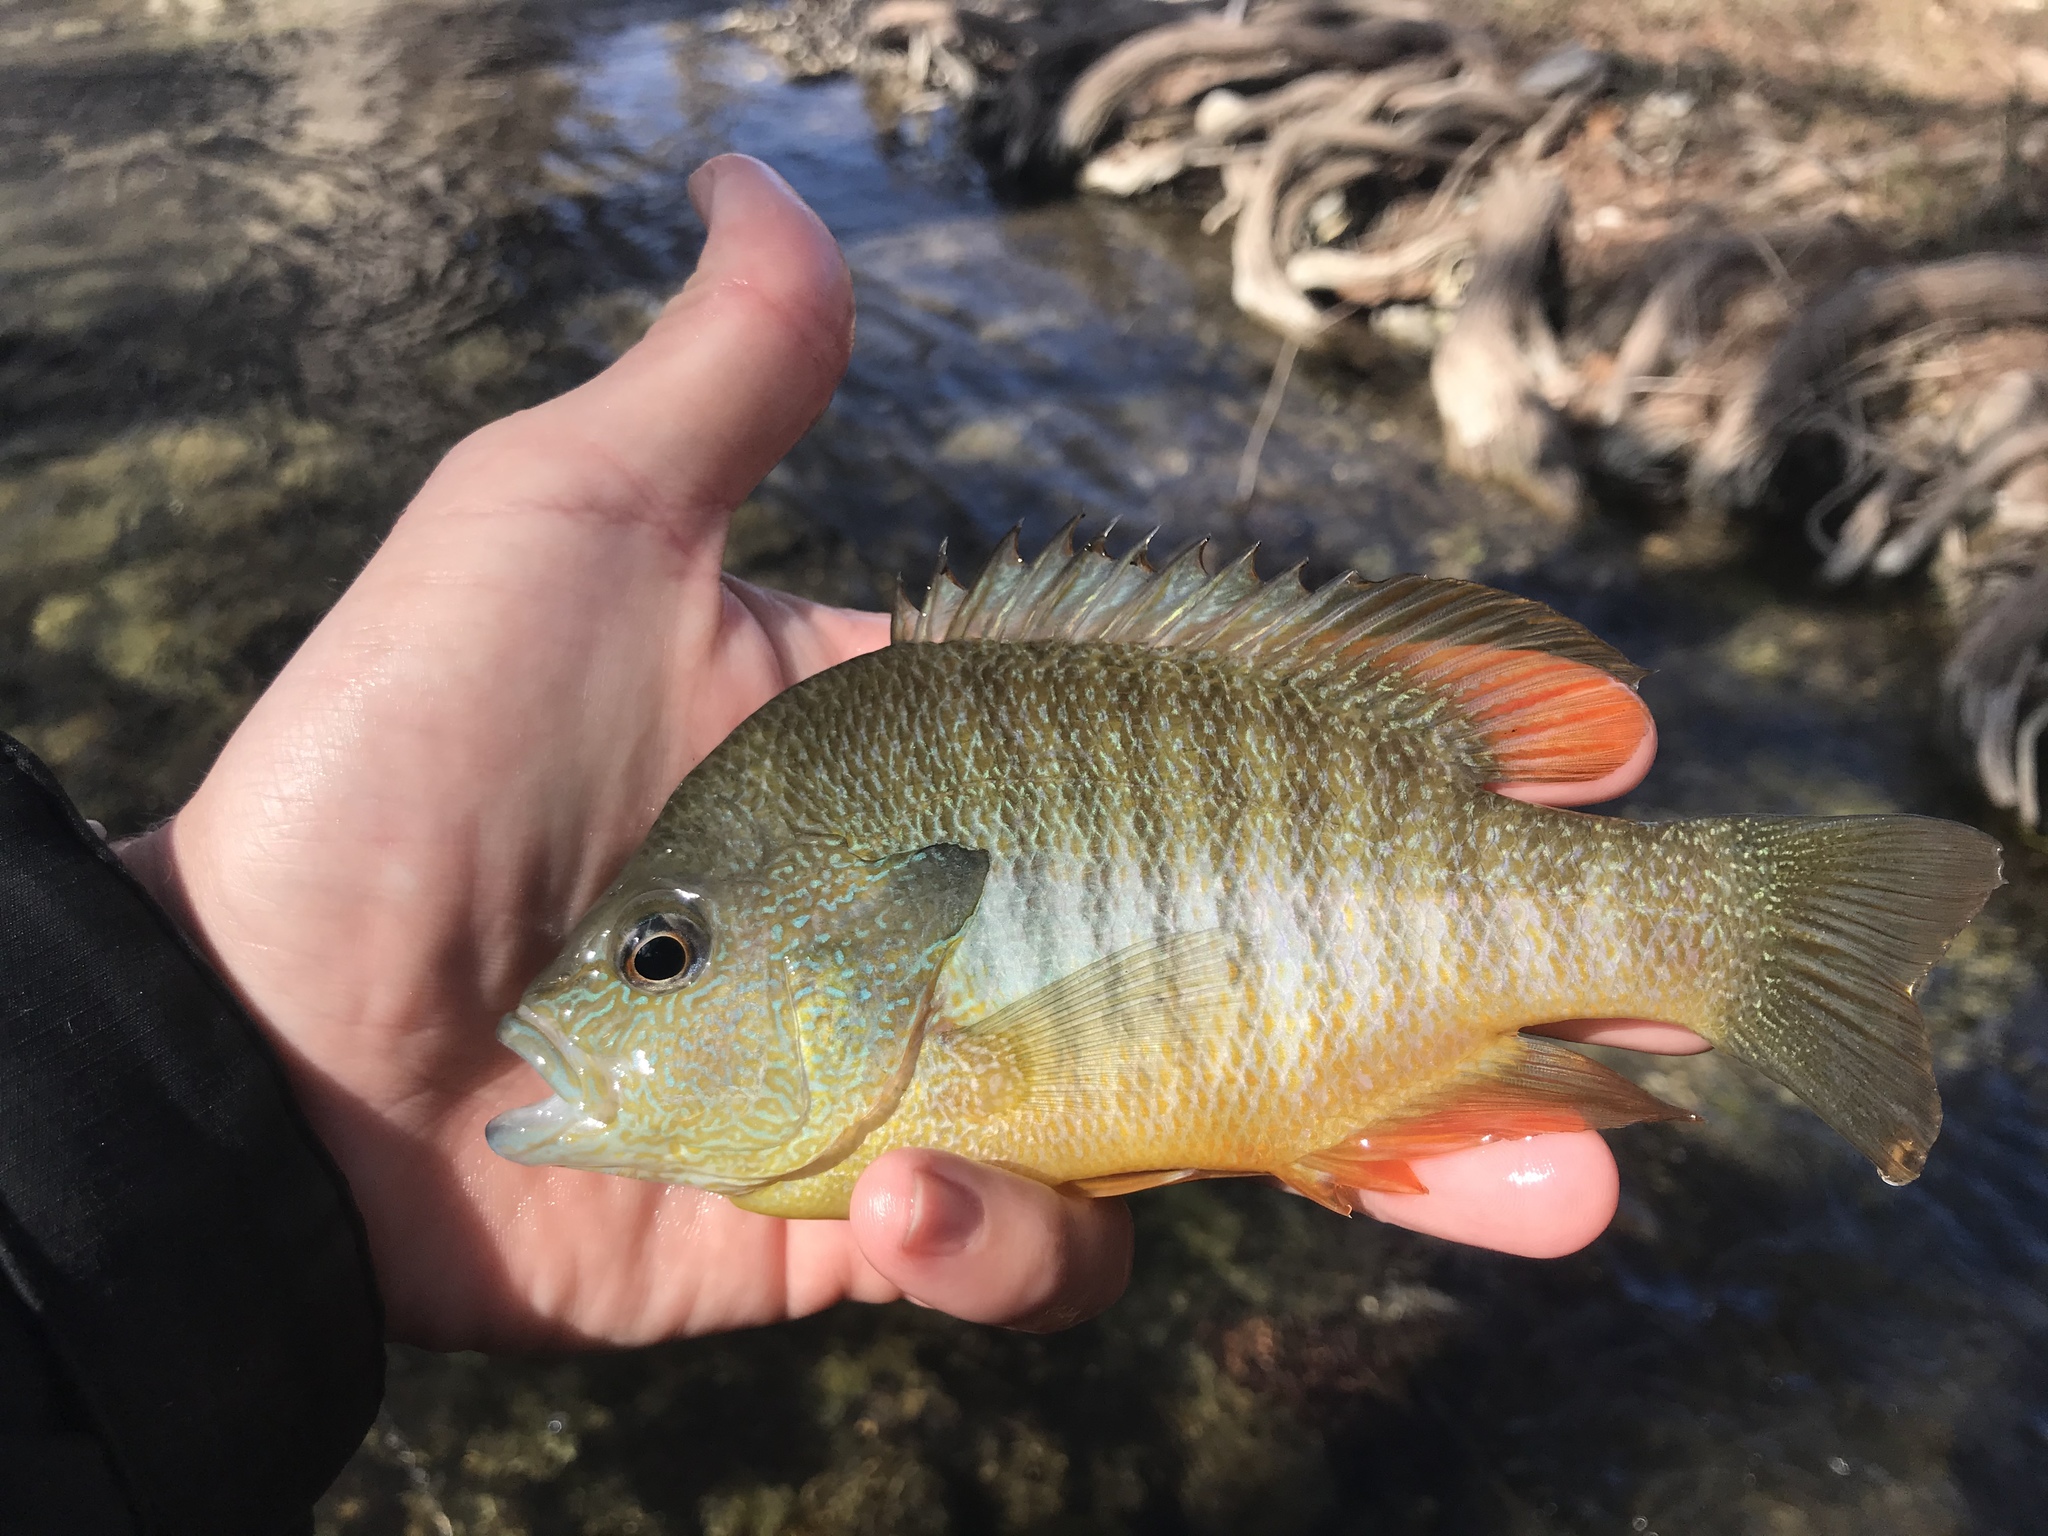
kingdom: Animalia
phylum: Chordata
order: Perciformes
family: Centrarchidae
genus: Lepomis
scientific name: Lepomis megalotis
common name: Longear sunfish
